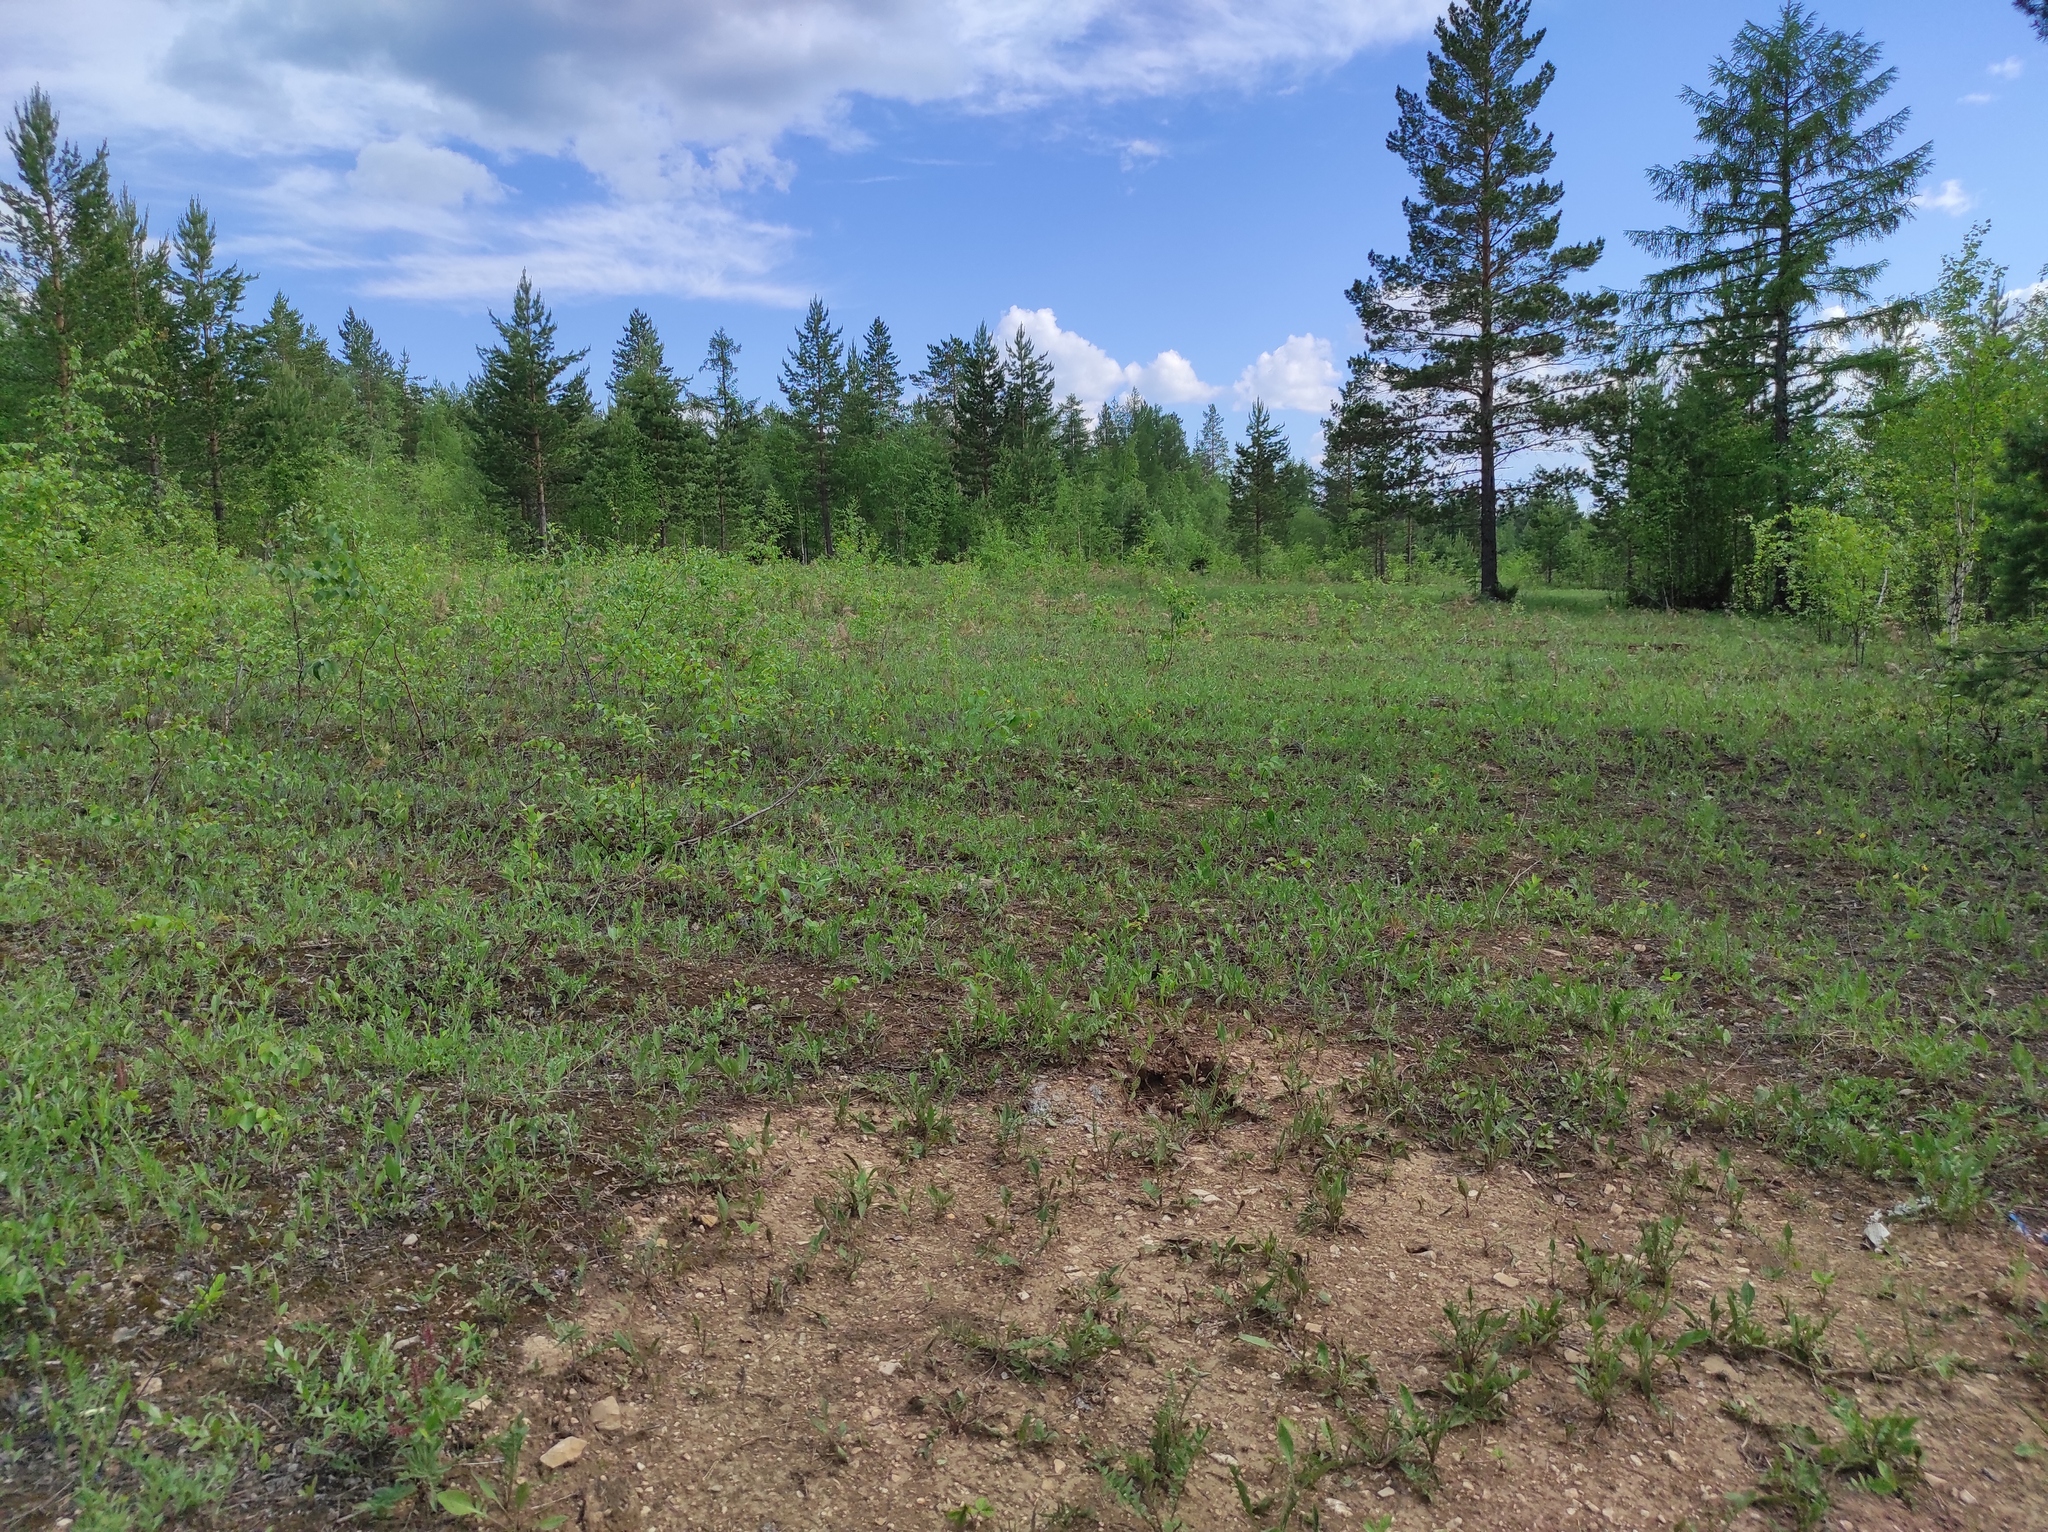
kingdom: Plantae
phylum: Tracheophyta
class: Liliopsida
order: Asparagales
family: Orchidaceae
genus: Cypripedium
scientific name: Cypripedium calceolus
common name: Lady's-slipper
